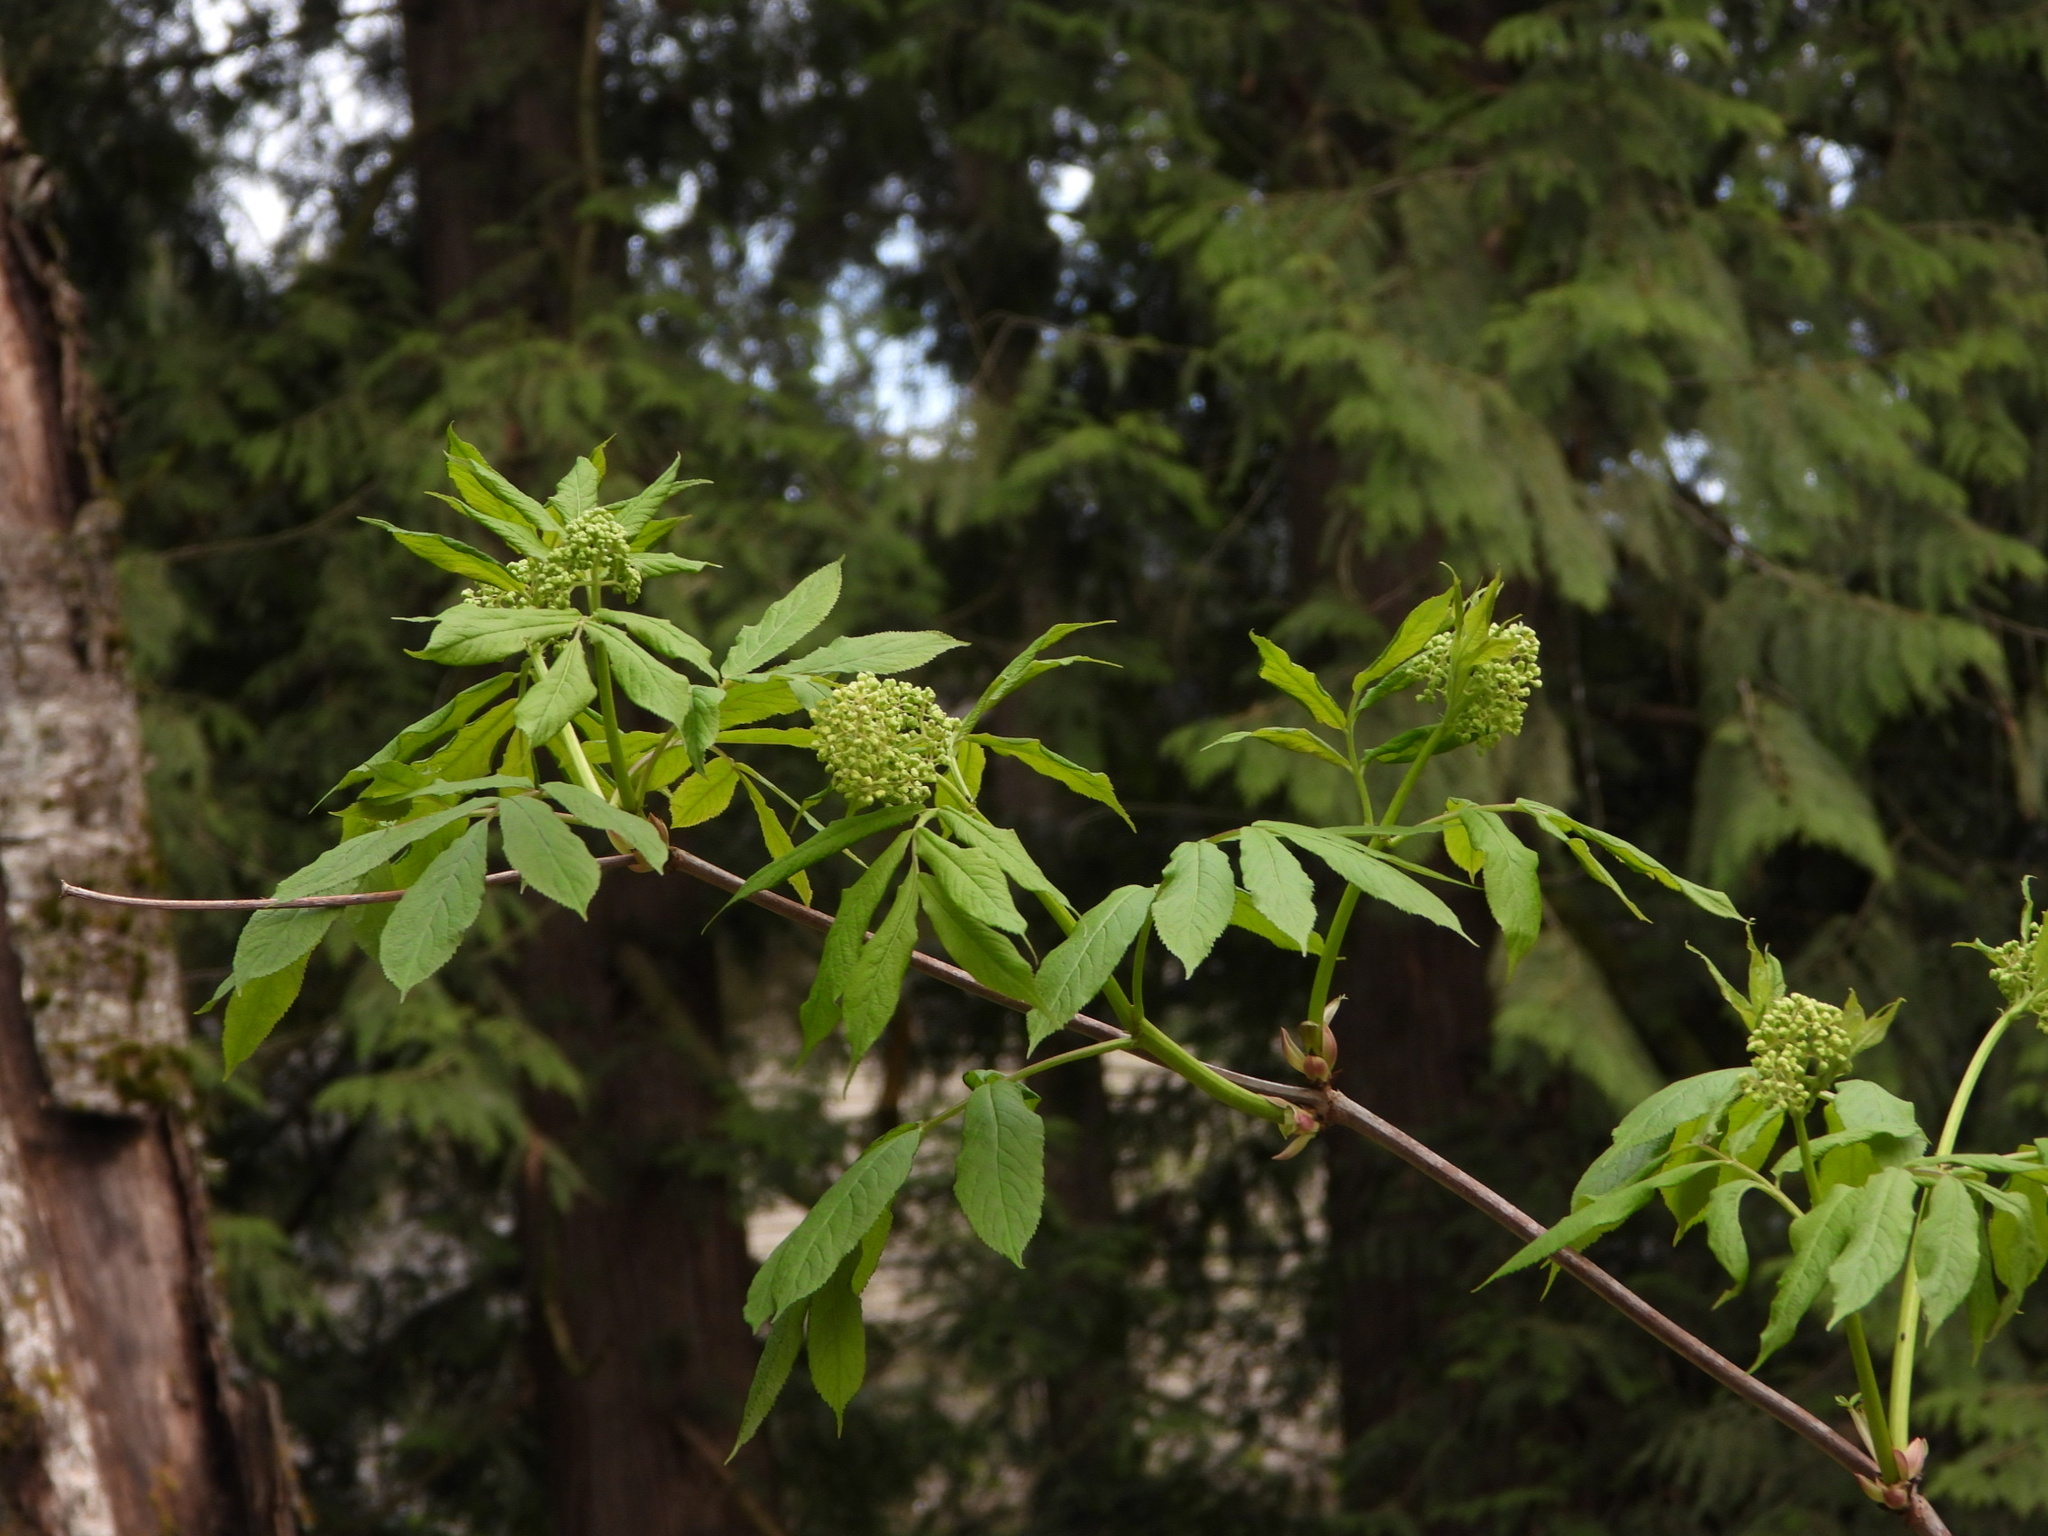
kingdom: Plantae
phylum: Tracheophyta
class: Magnoliopsida
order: Dipsacales
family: Viburnaceae
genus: Sambucus
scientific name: Sambucus racemosa
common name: Red-berried elder
